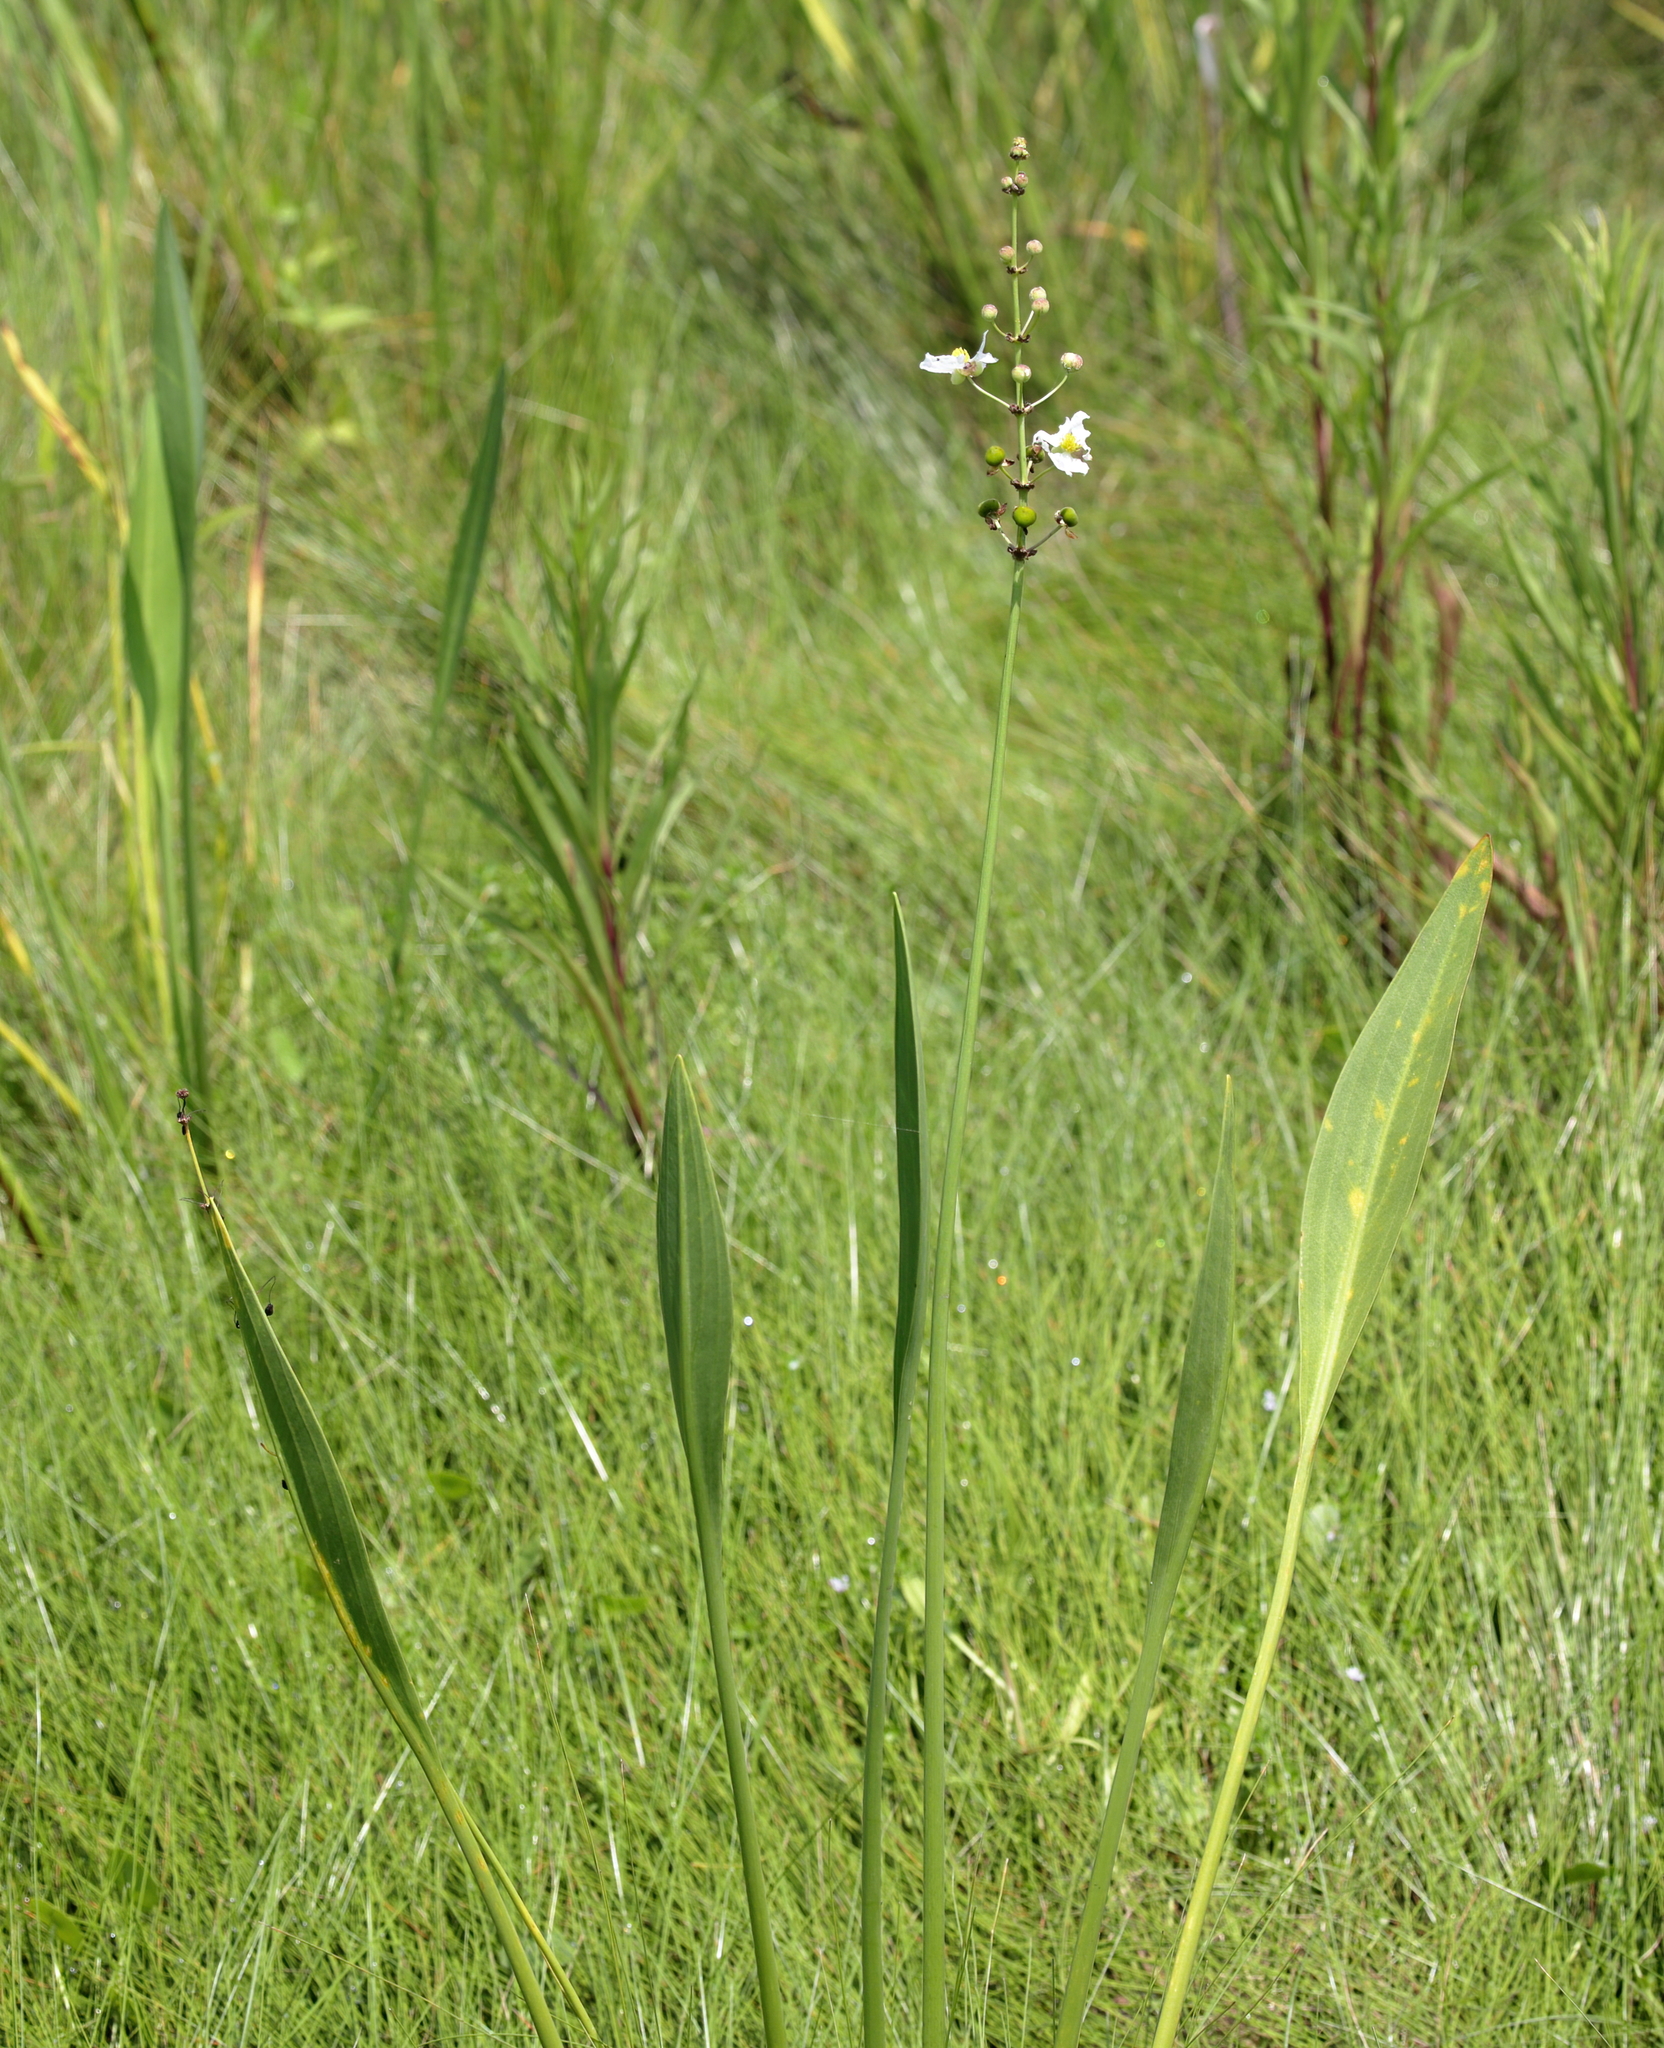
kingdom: Plantae
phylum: Tracheophyta
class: Liliopsida
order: Alismatales
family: Alismataceae
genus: Sagittaria
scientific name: Sagittaria lancifolia
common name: Lance-leaf arrowhead
